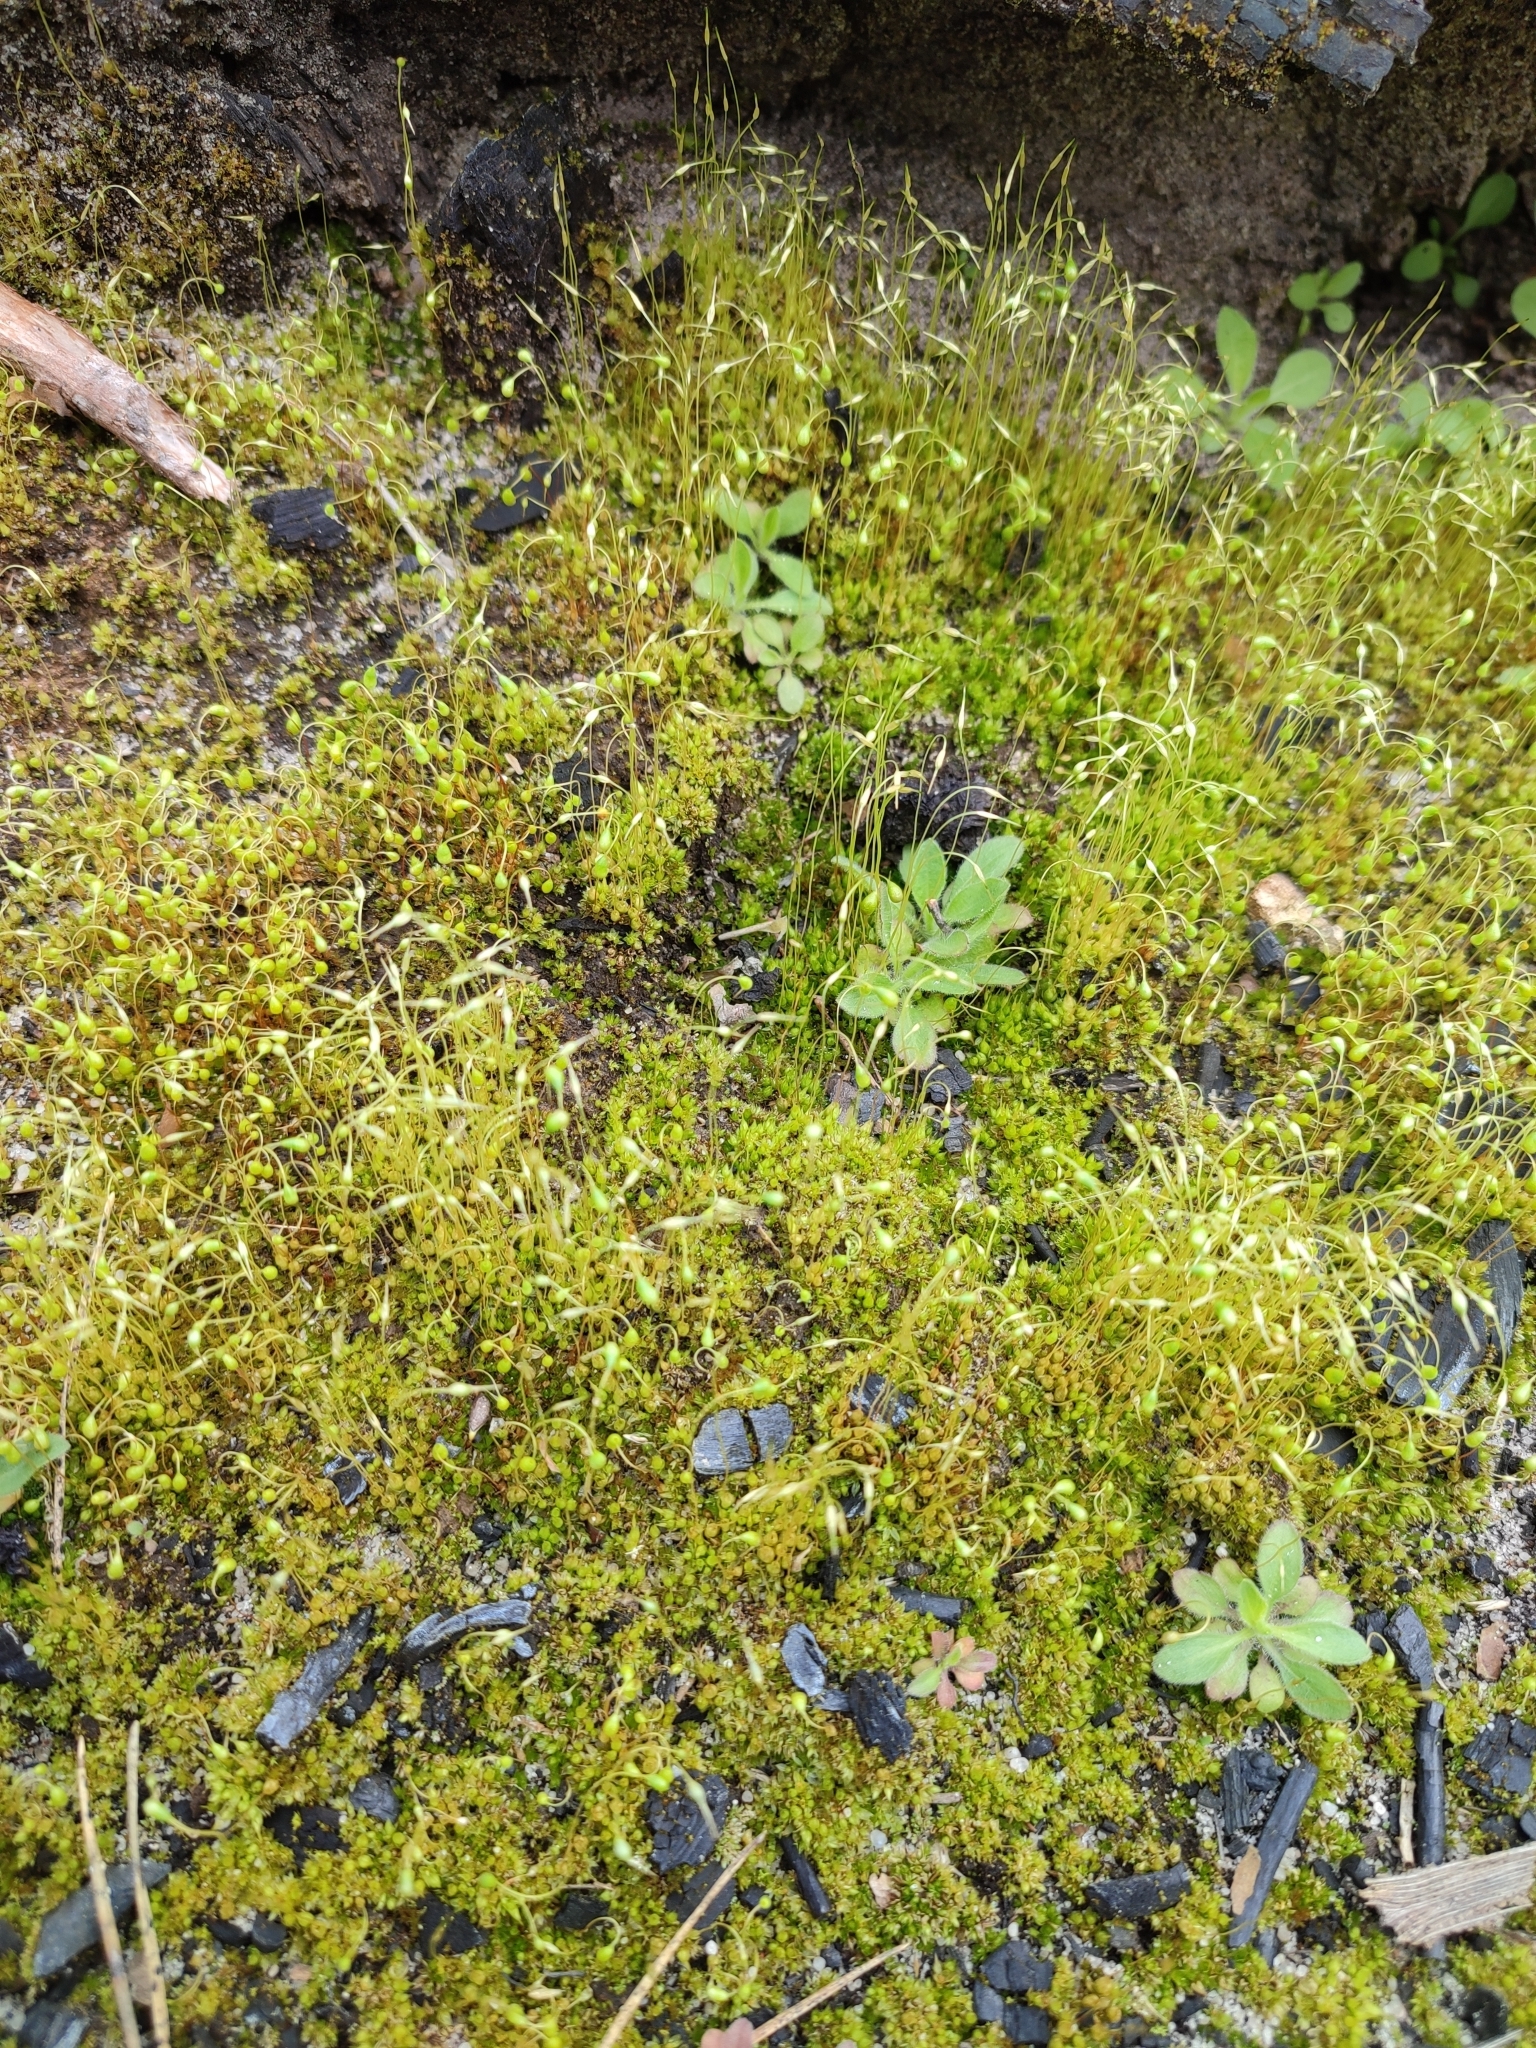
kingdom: Plantae
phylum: Bryophyta
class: Bryopsida
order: Funariales
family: Funariaceae
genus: Funaria
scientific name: Funaria hygrometrica
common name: Common cord moss
